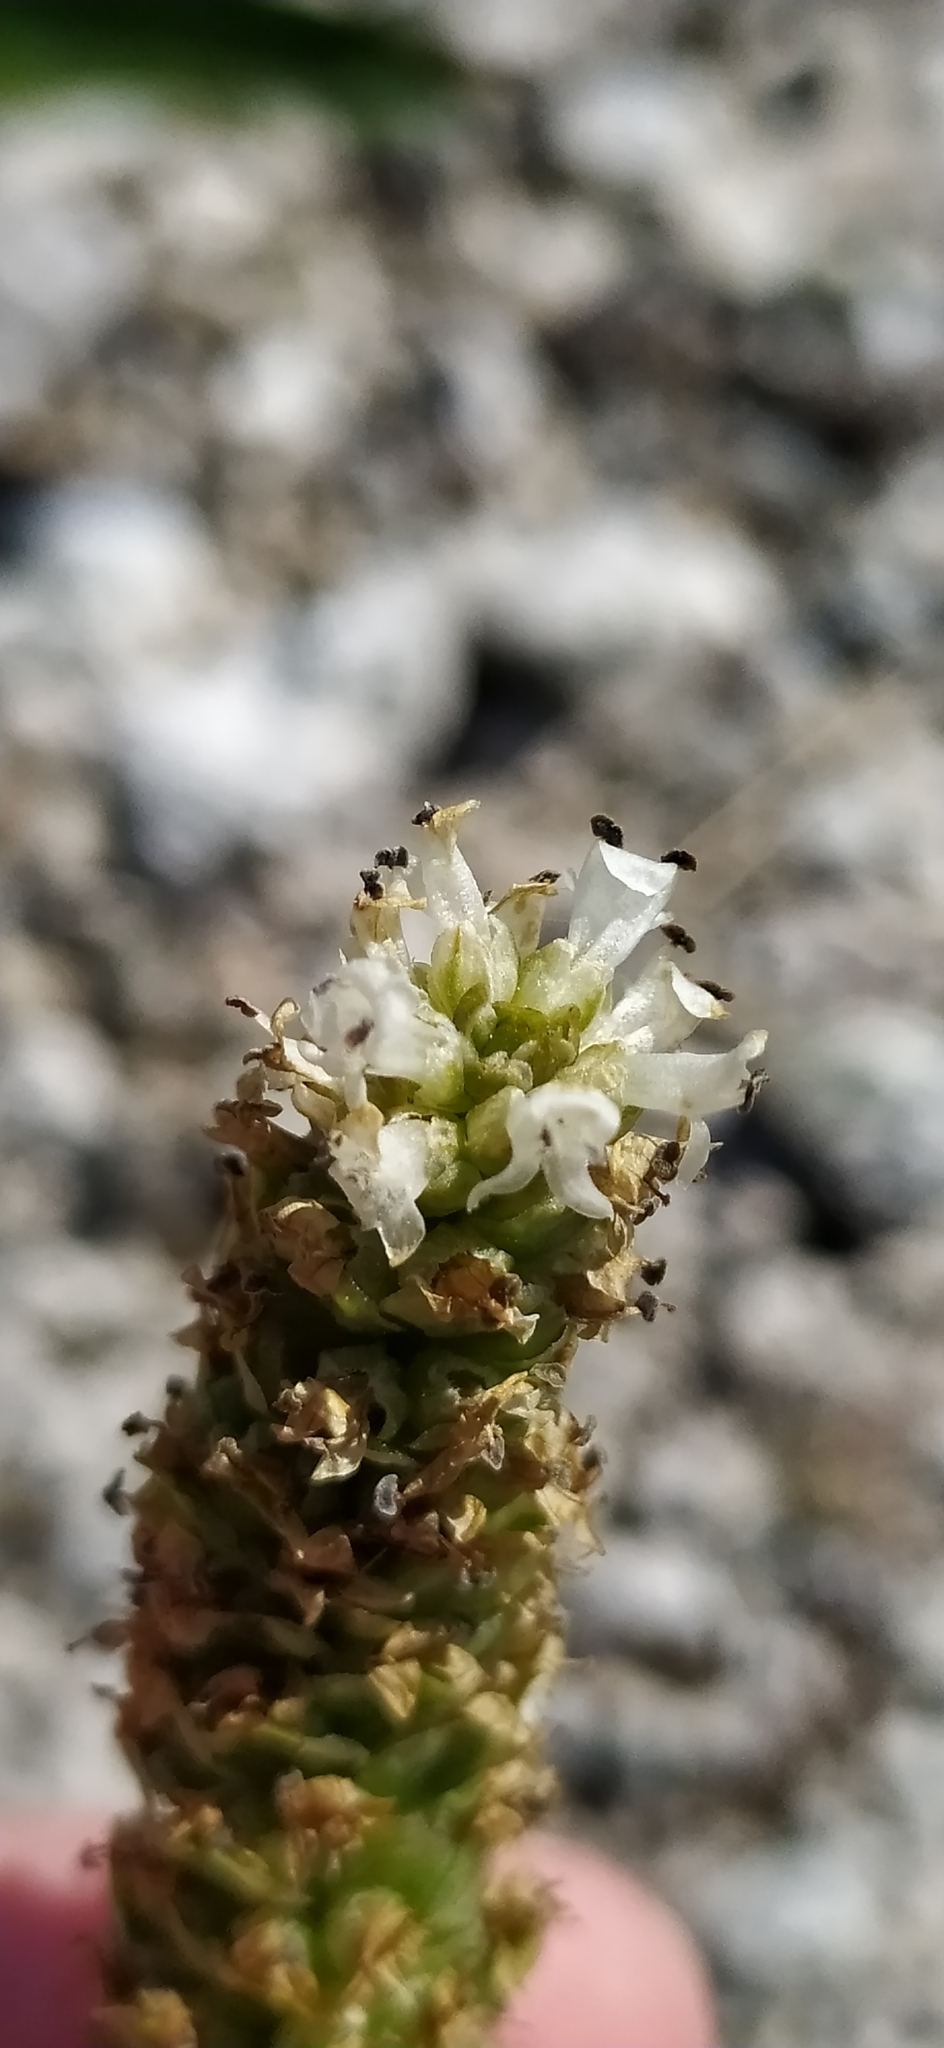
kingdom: Plantae
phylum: Tracheophyta
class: Magnoliopsida
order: Lamiales
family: Plantaginaceae
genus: Lagotis
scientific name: Lagotis uralensis
